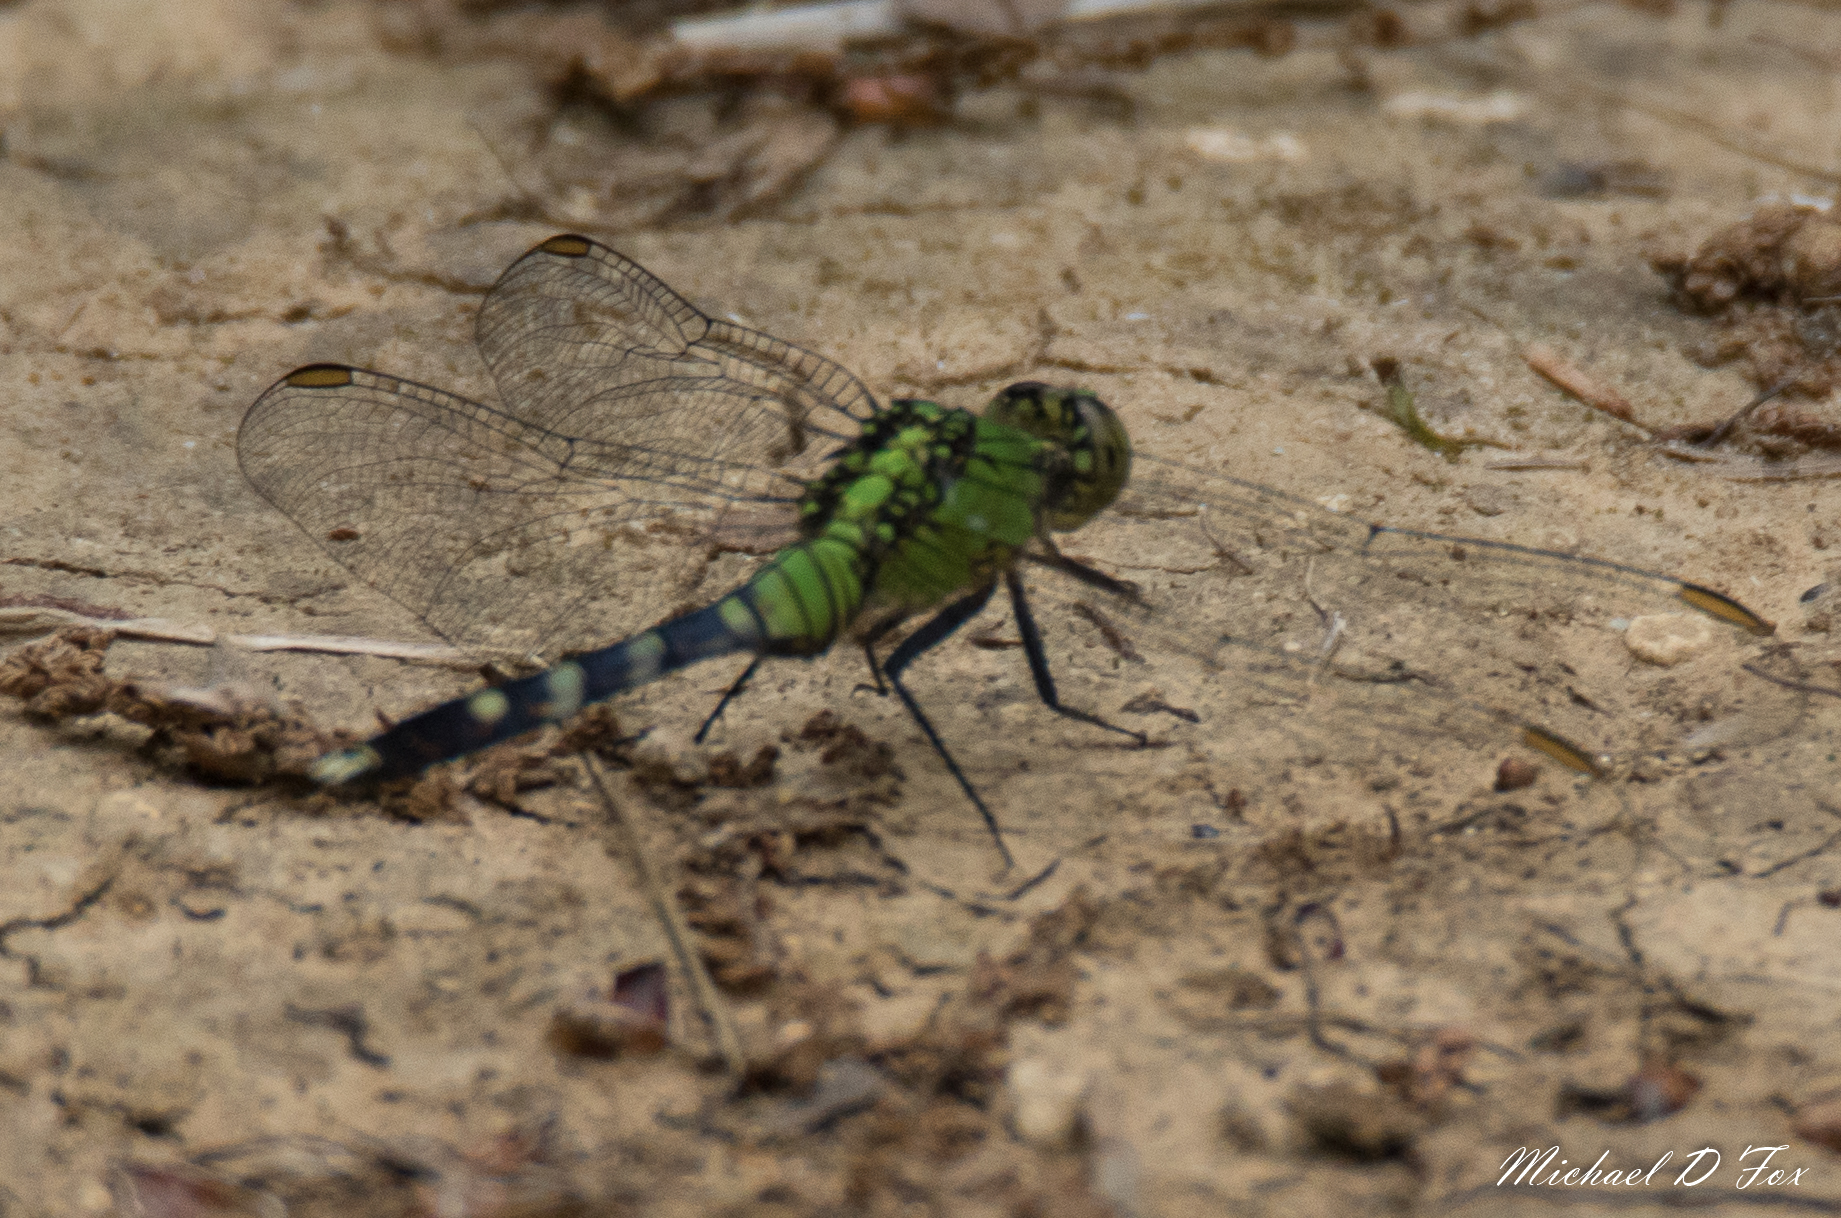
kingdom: Animalia
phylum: Arthropoda
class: Insecta
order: Odonata
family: Libellulidae
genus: Erythemis
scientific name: Erythemis simplicicollis
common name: Eastern pondhawk
